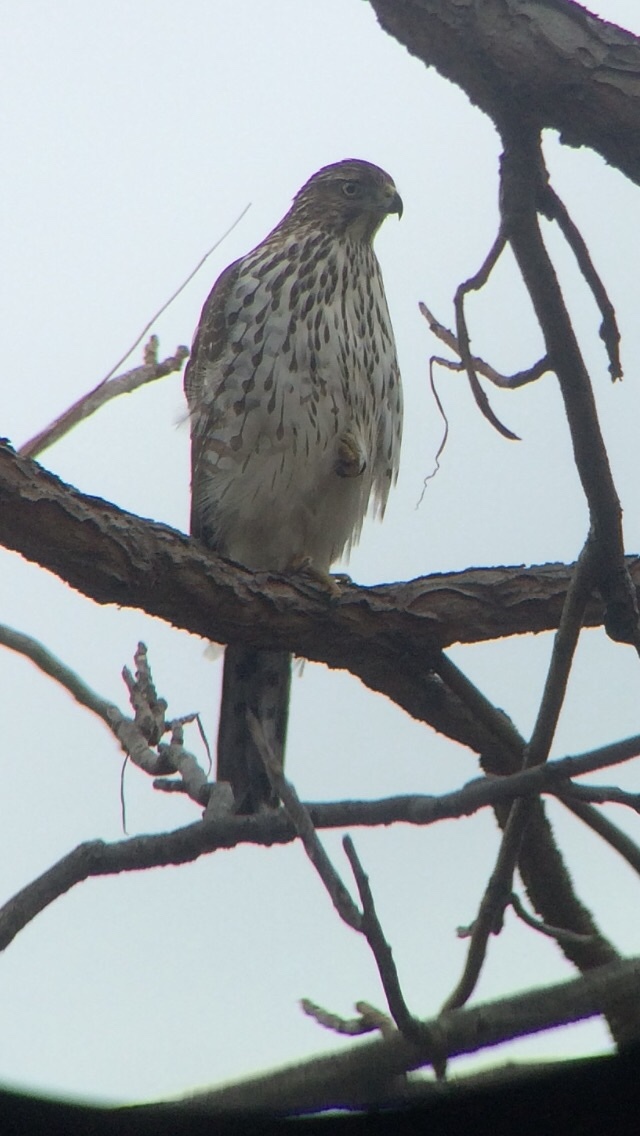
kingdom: Animalia
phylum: Chordata
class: Aves
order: Accipitriformes
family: Accipitridae
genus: Accipiter
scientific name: Accipiter cooperii
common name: Cooper's hawk
